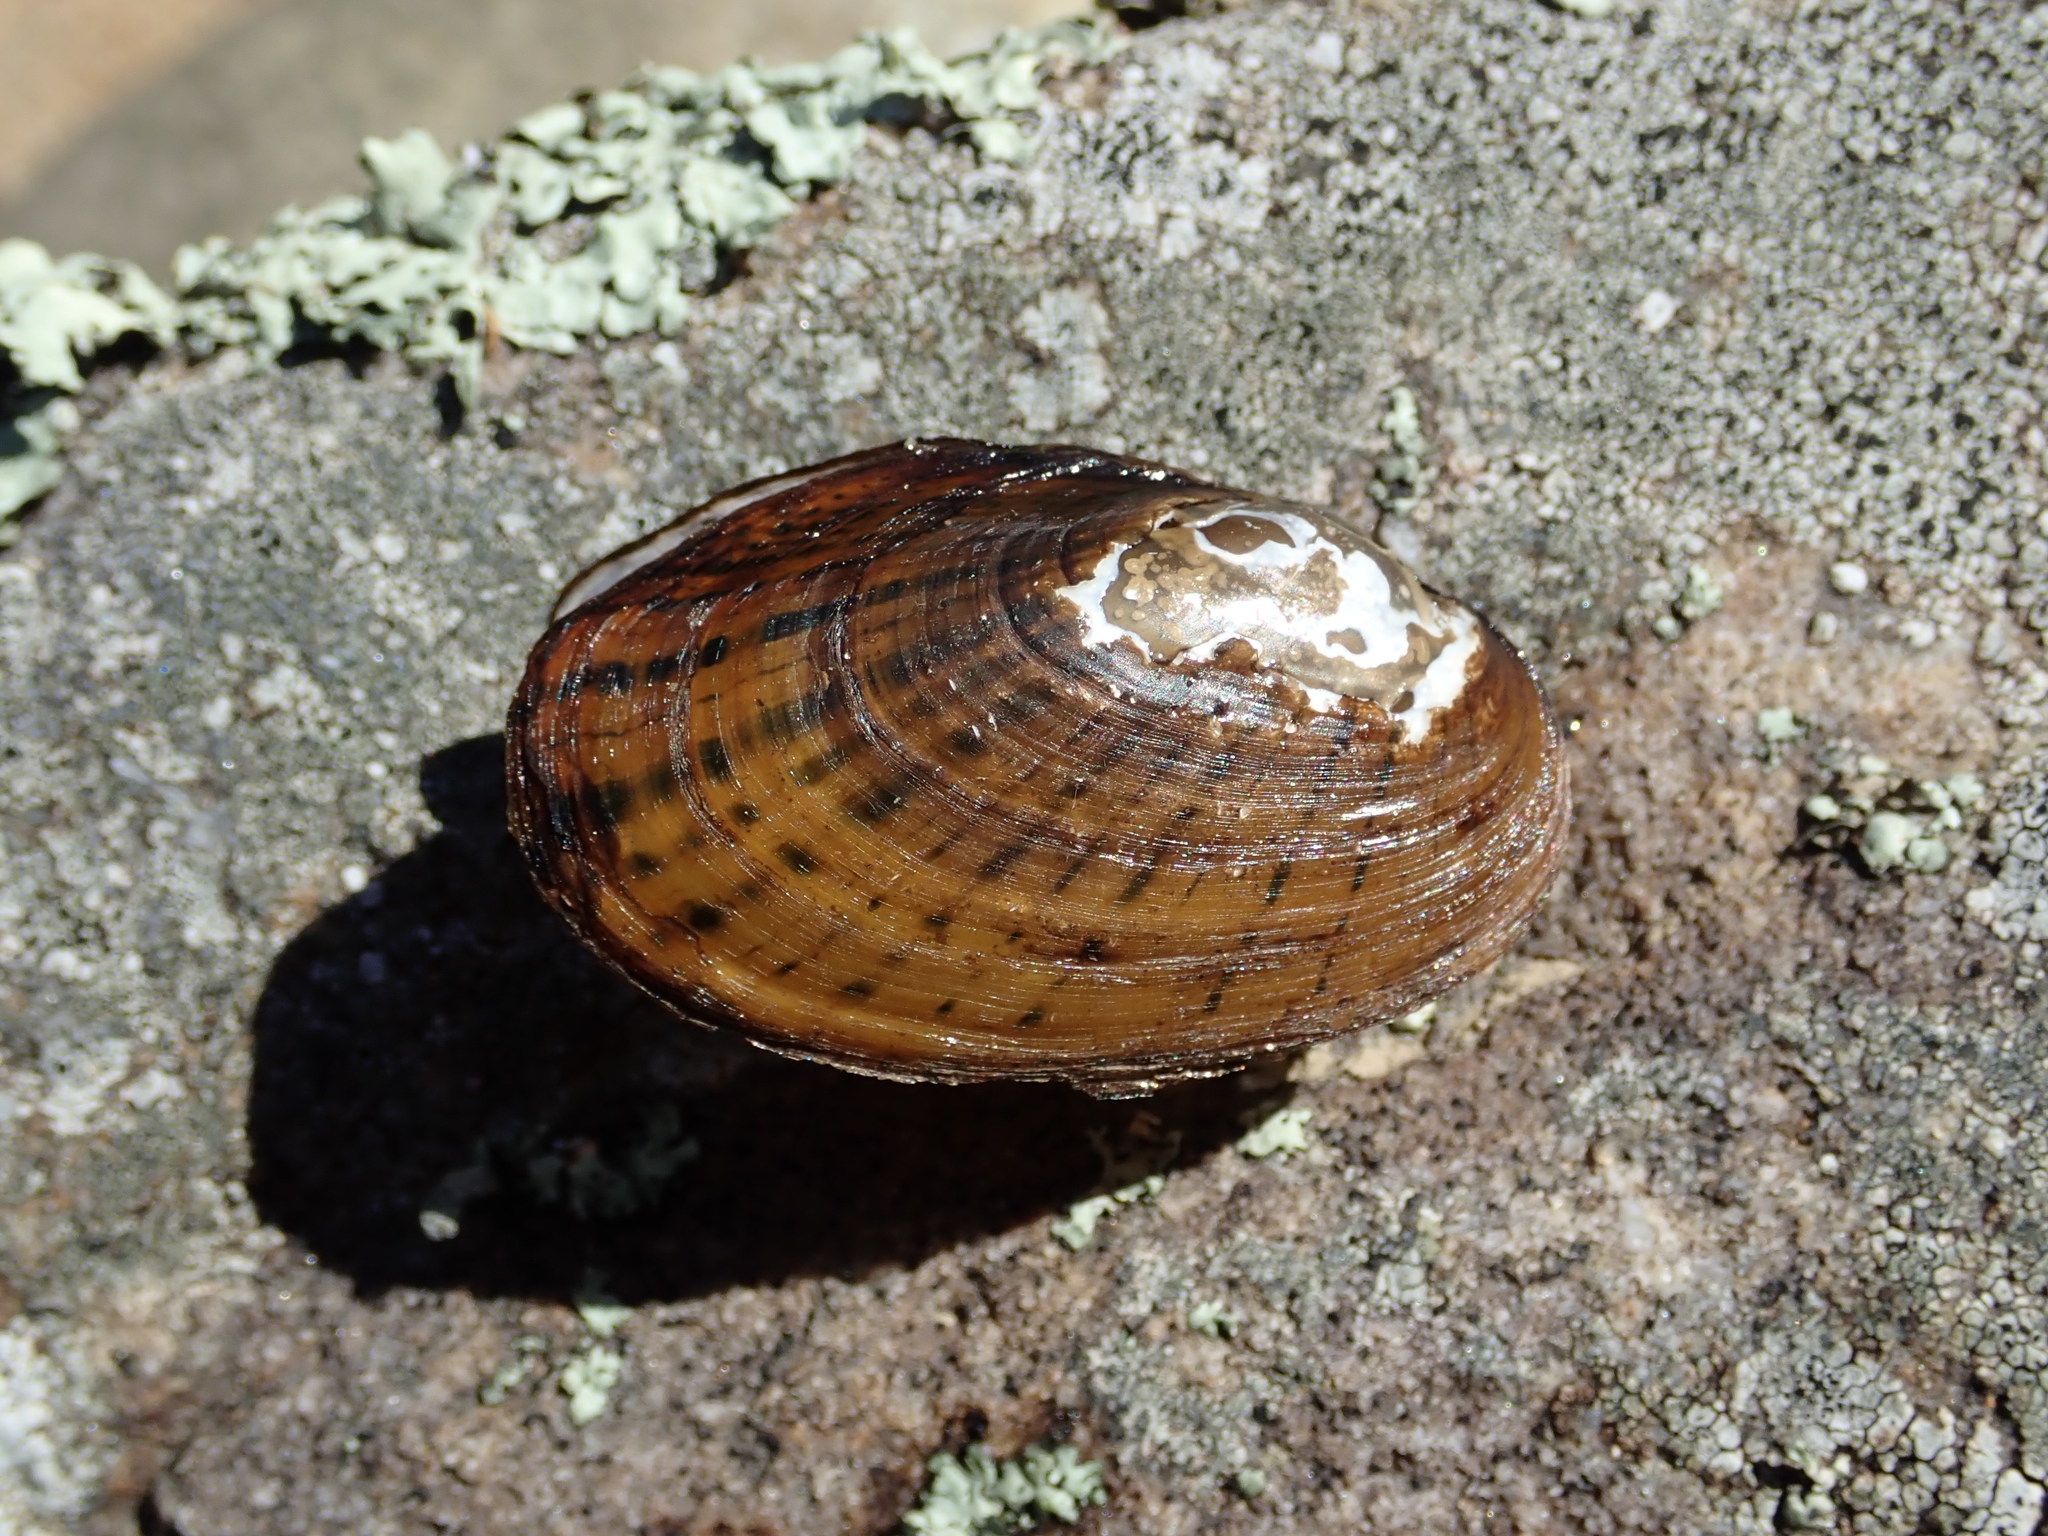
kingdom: Animalia
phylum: Mollusca
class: Bivalvia
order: Unionida
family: Unionidae
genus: Cambarunio
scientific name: Cambarunio iris
